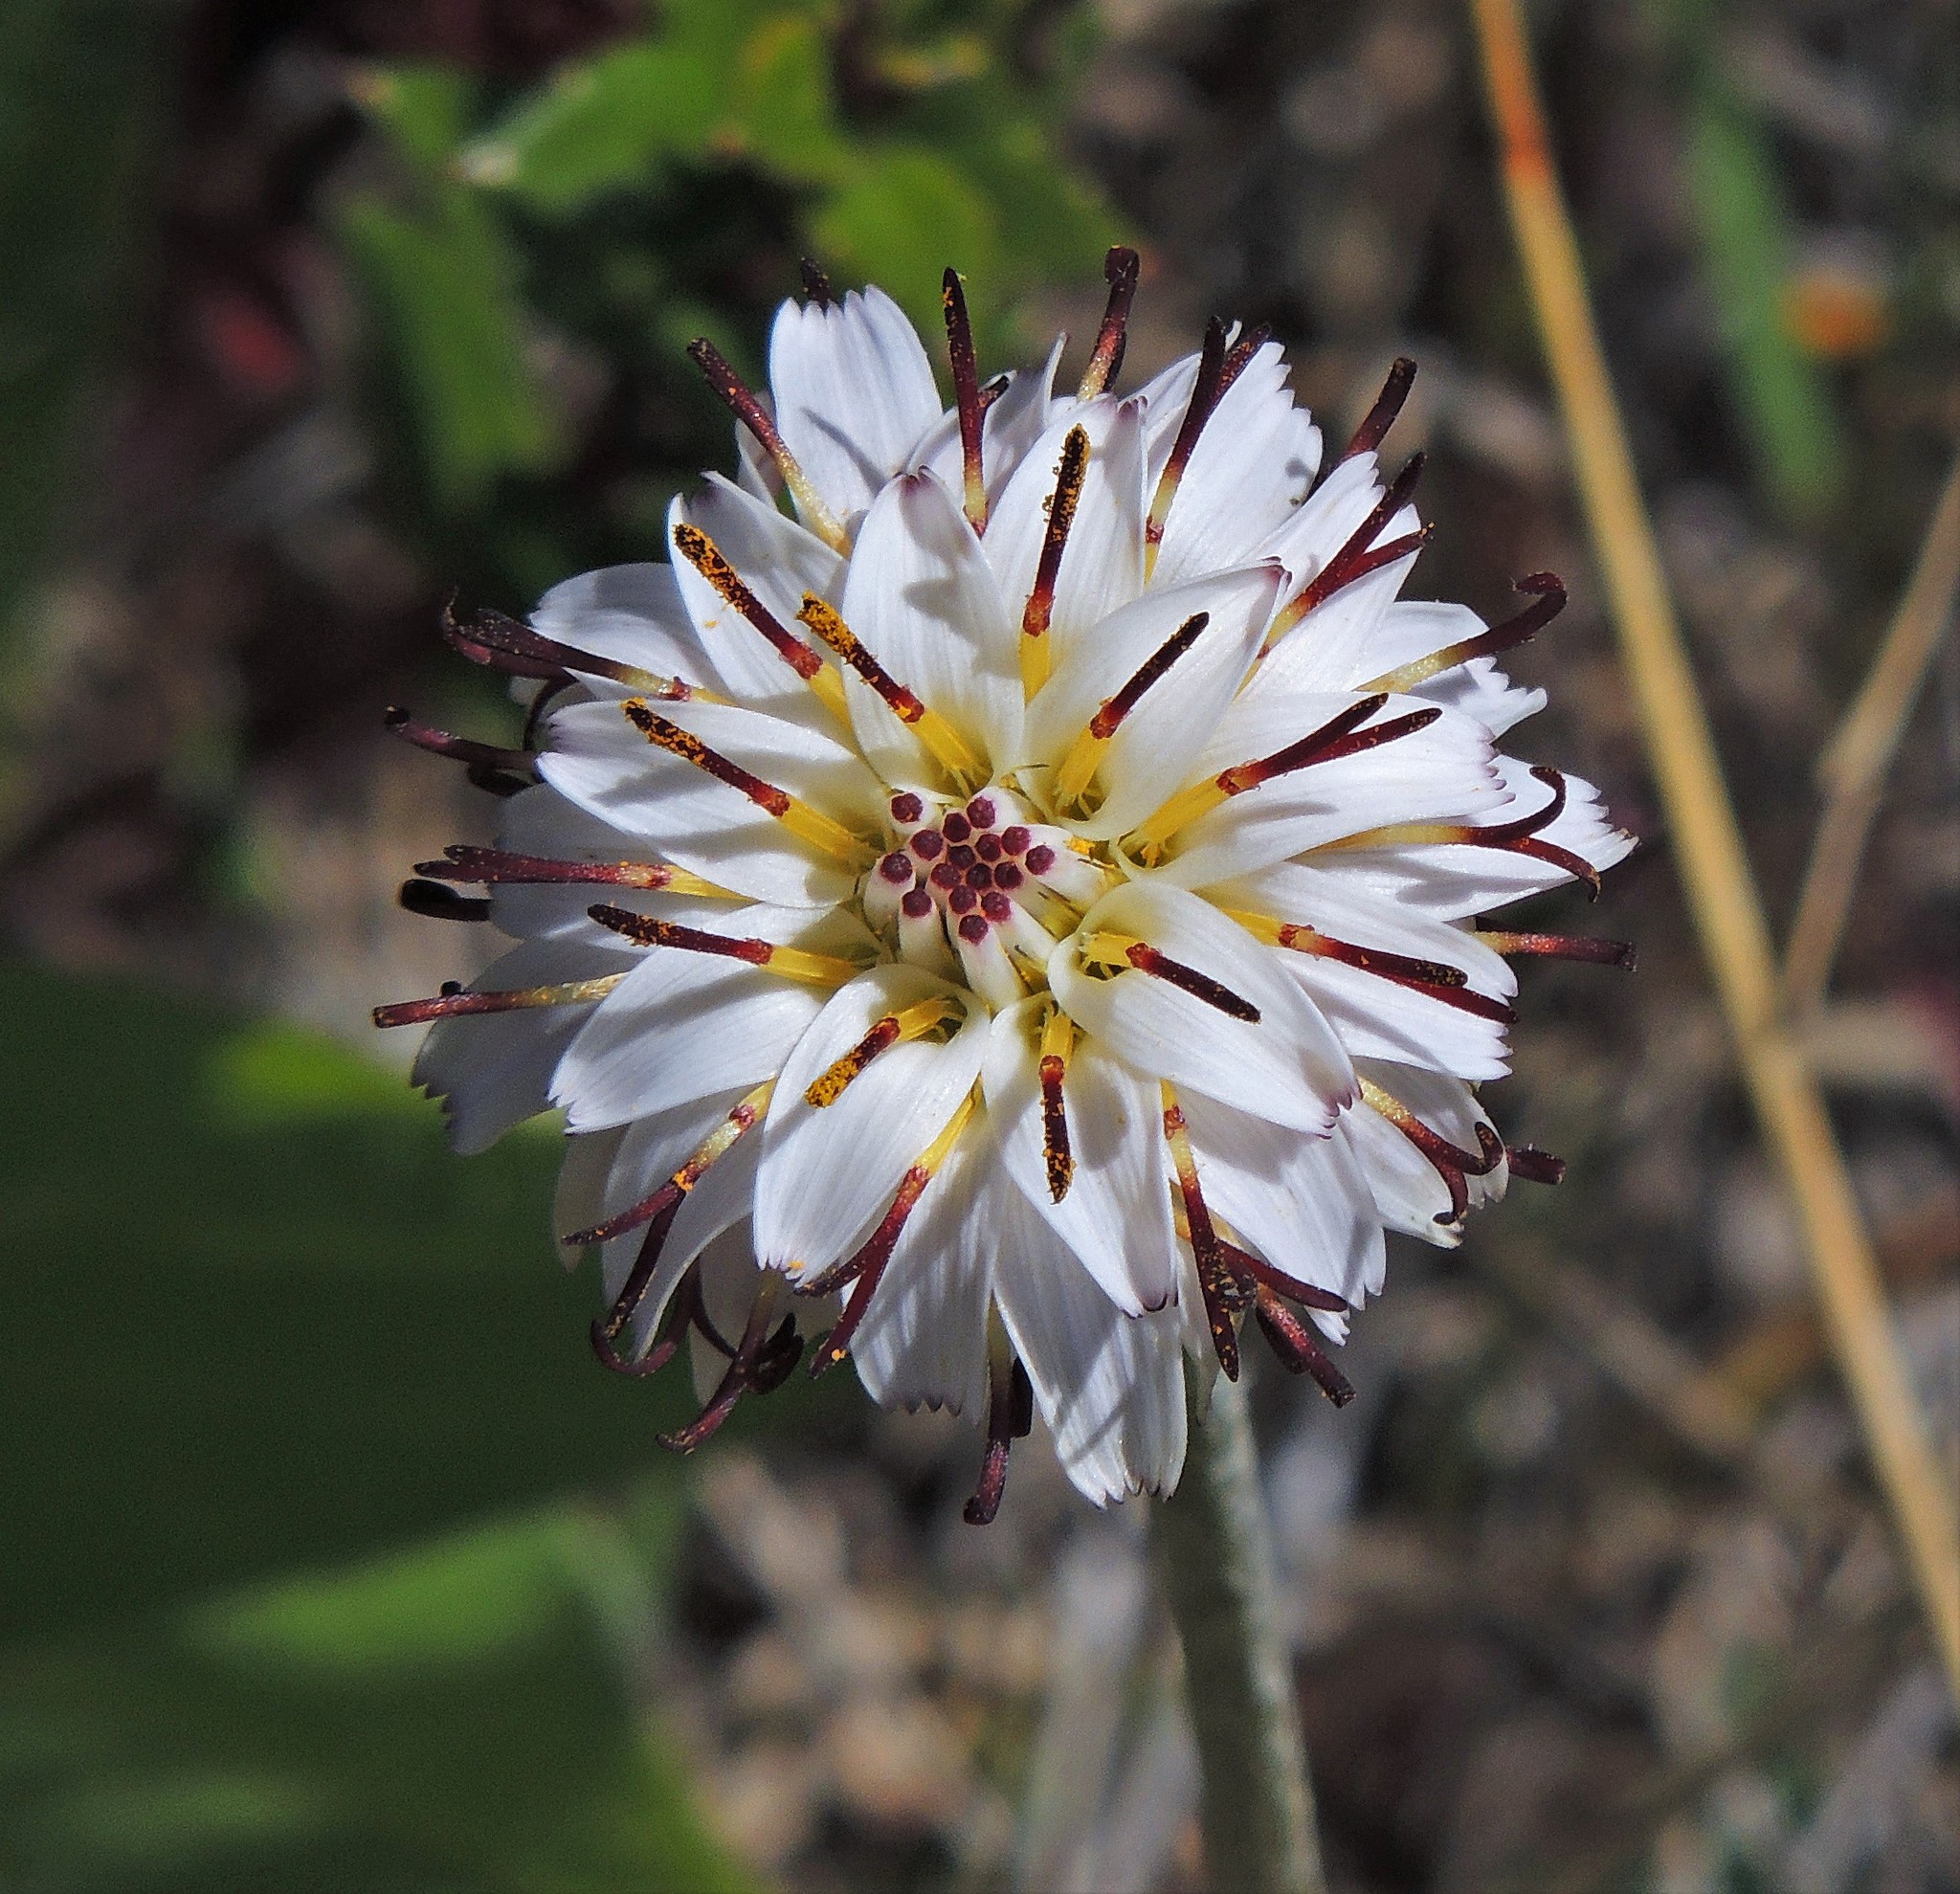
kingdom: Plantae
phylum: Tracheophyta
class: Magnoliopsida
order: Asterales
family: Asteraceae
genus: Hypochaeris
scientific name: Hypochaeris incana
